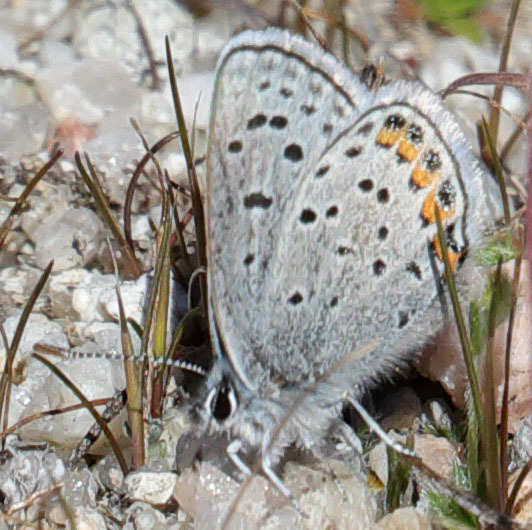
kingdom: Animalia
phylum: Arthropoda
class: Insecta
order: Lepidoptera
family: Lycaenidae
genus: Icaricia
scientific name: Icaricia acmon
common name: Acmon blue
